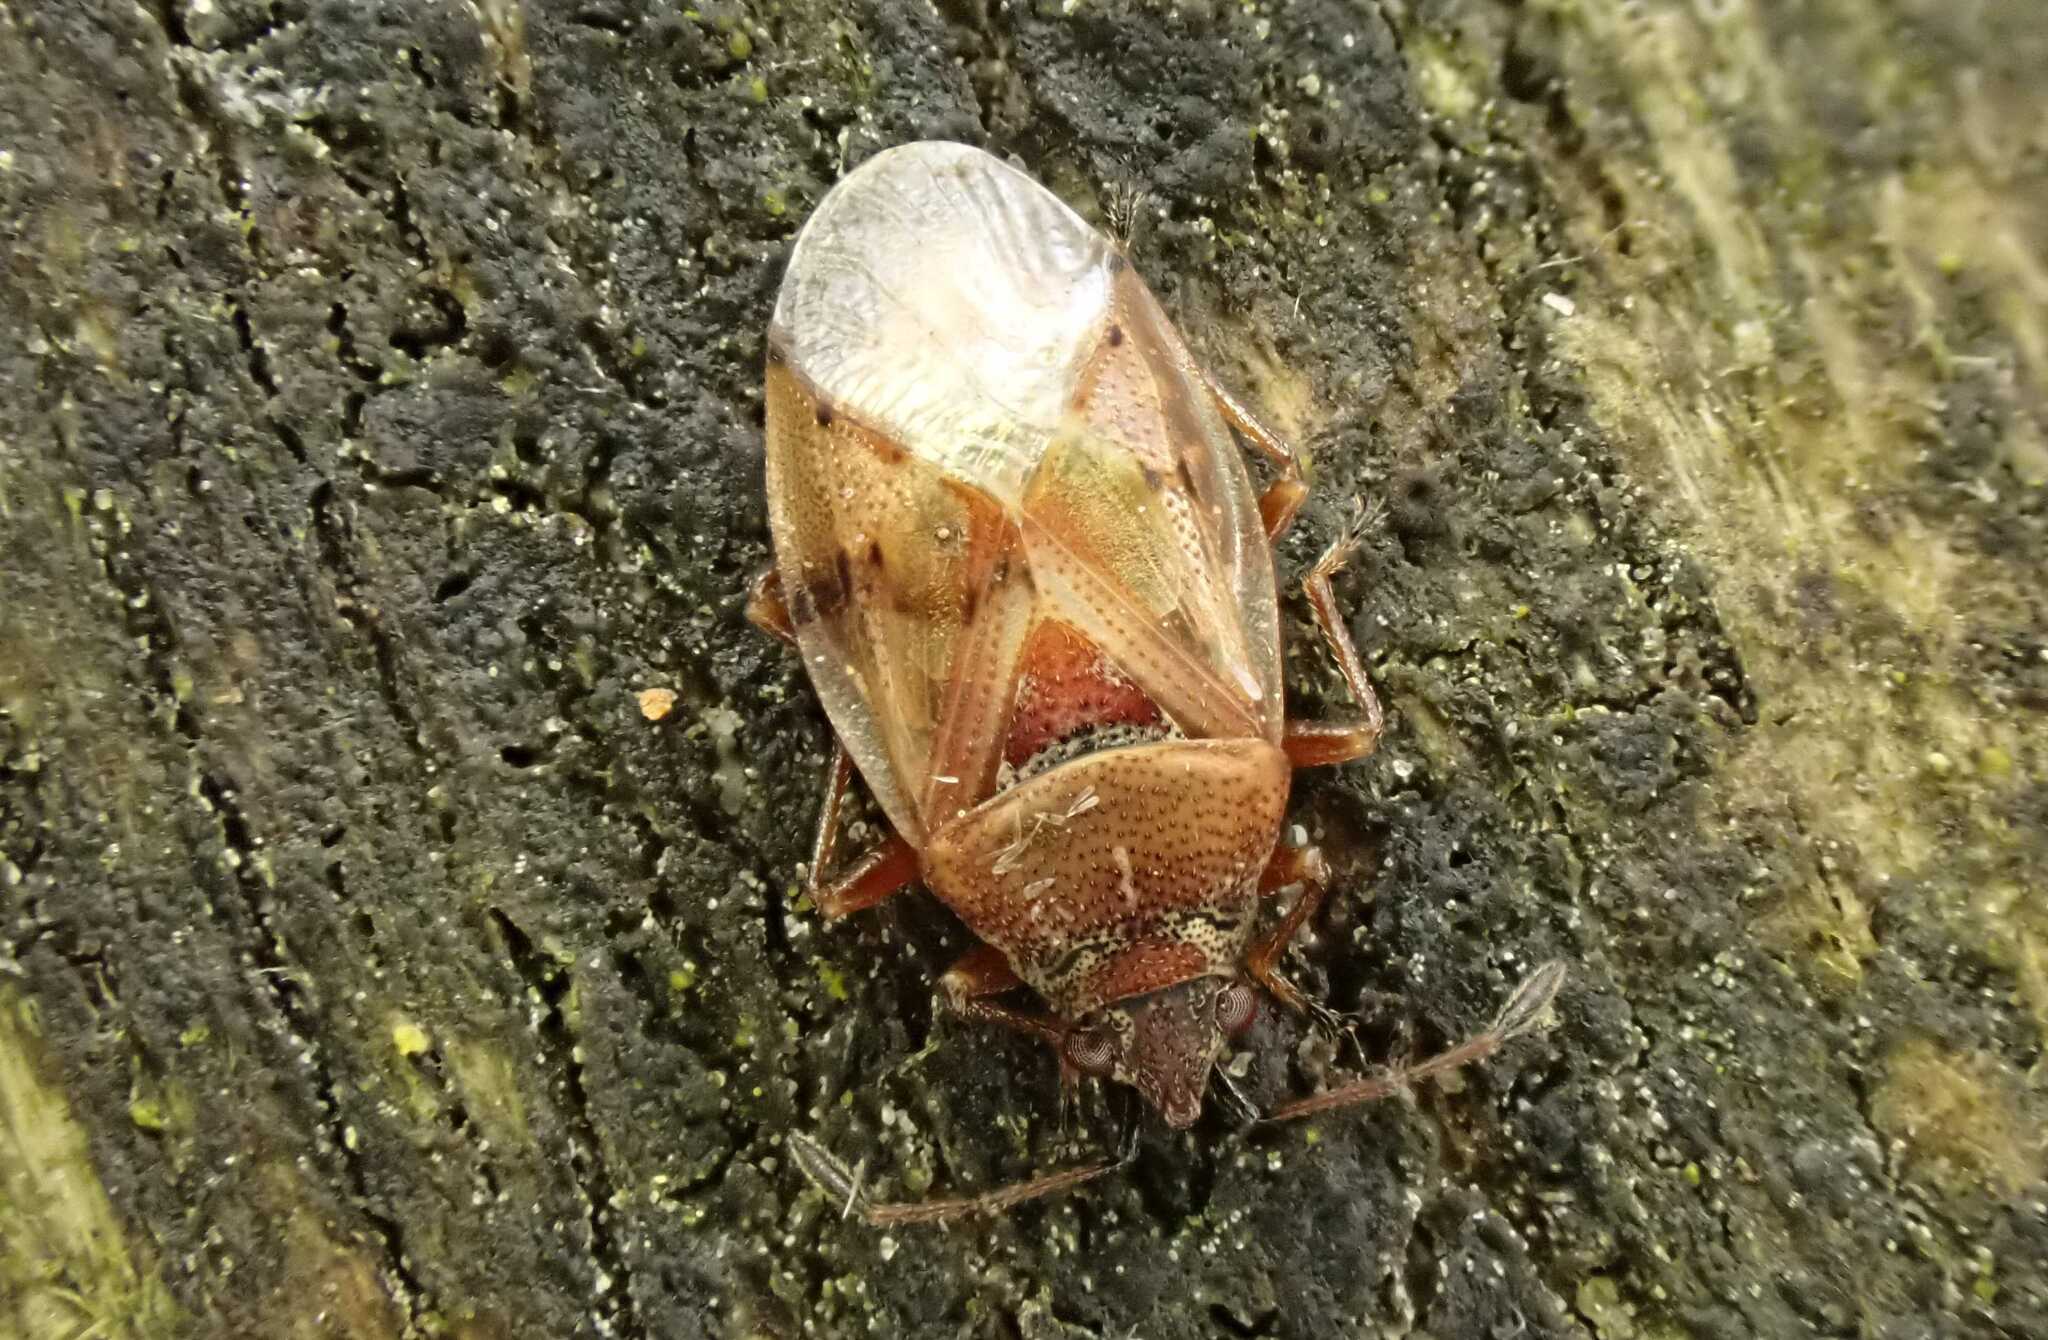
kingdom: Animalia
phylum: Arthropoda
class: Insecta
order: Hemiptera
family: Lygaeidae
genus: Kleidocerys
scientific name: Kleidocerys resedae
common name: Birch catkin bug
